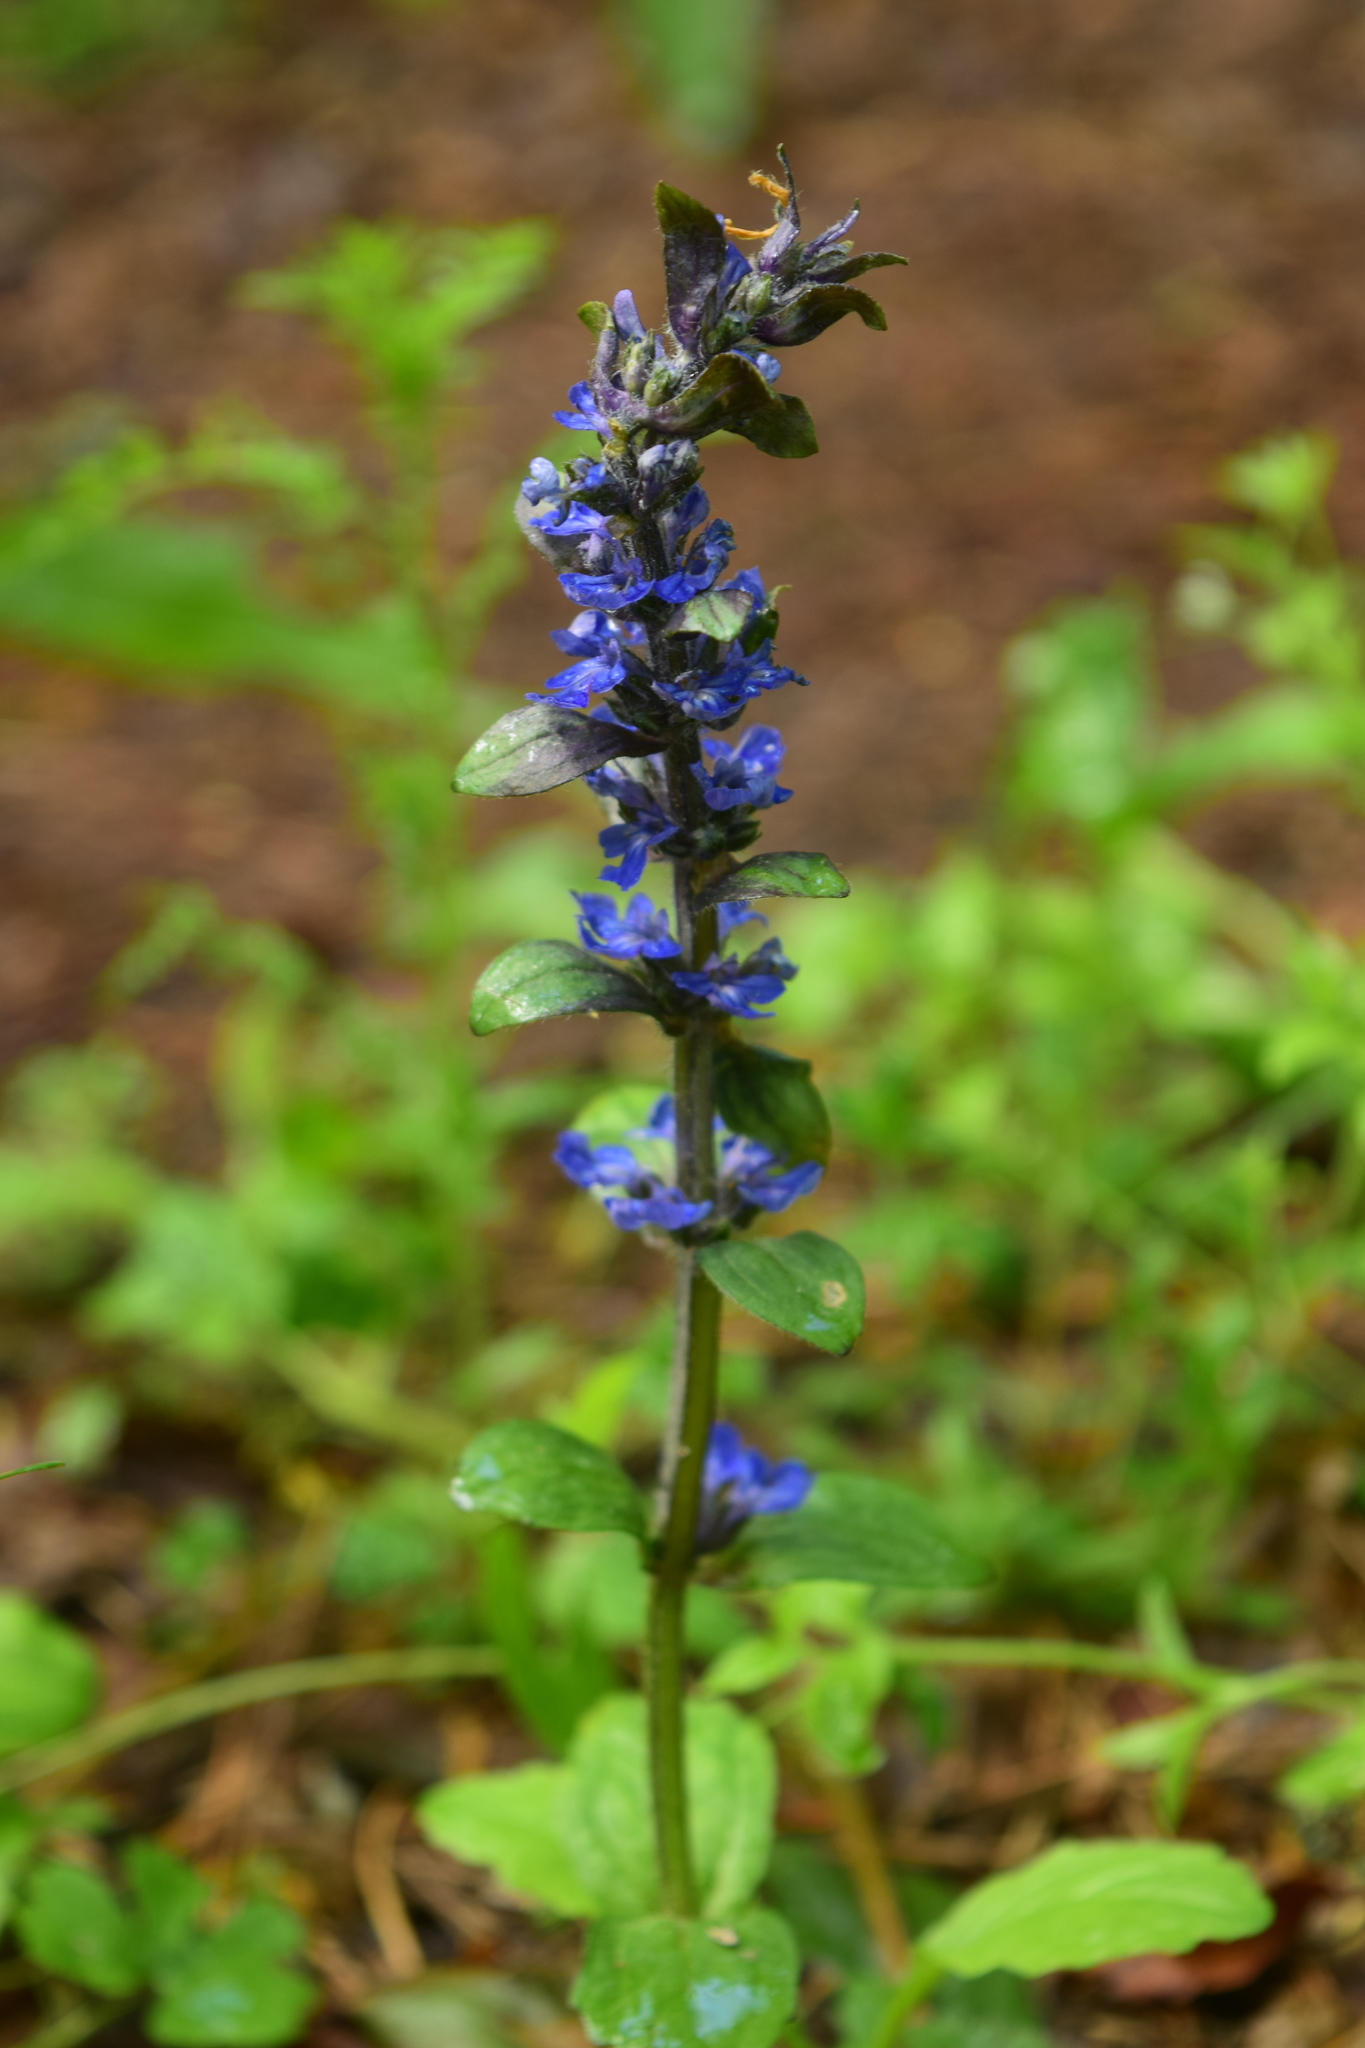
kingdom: Plantae
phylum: Tracheophyta
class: Magnoliopsida
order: Lamiales
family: Lamiaceae
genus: Ajuga
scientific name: Ajuga reptans
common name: Bugle
